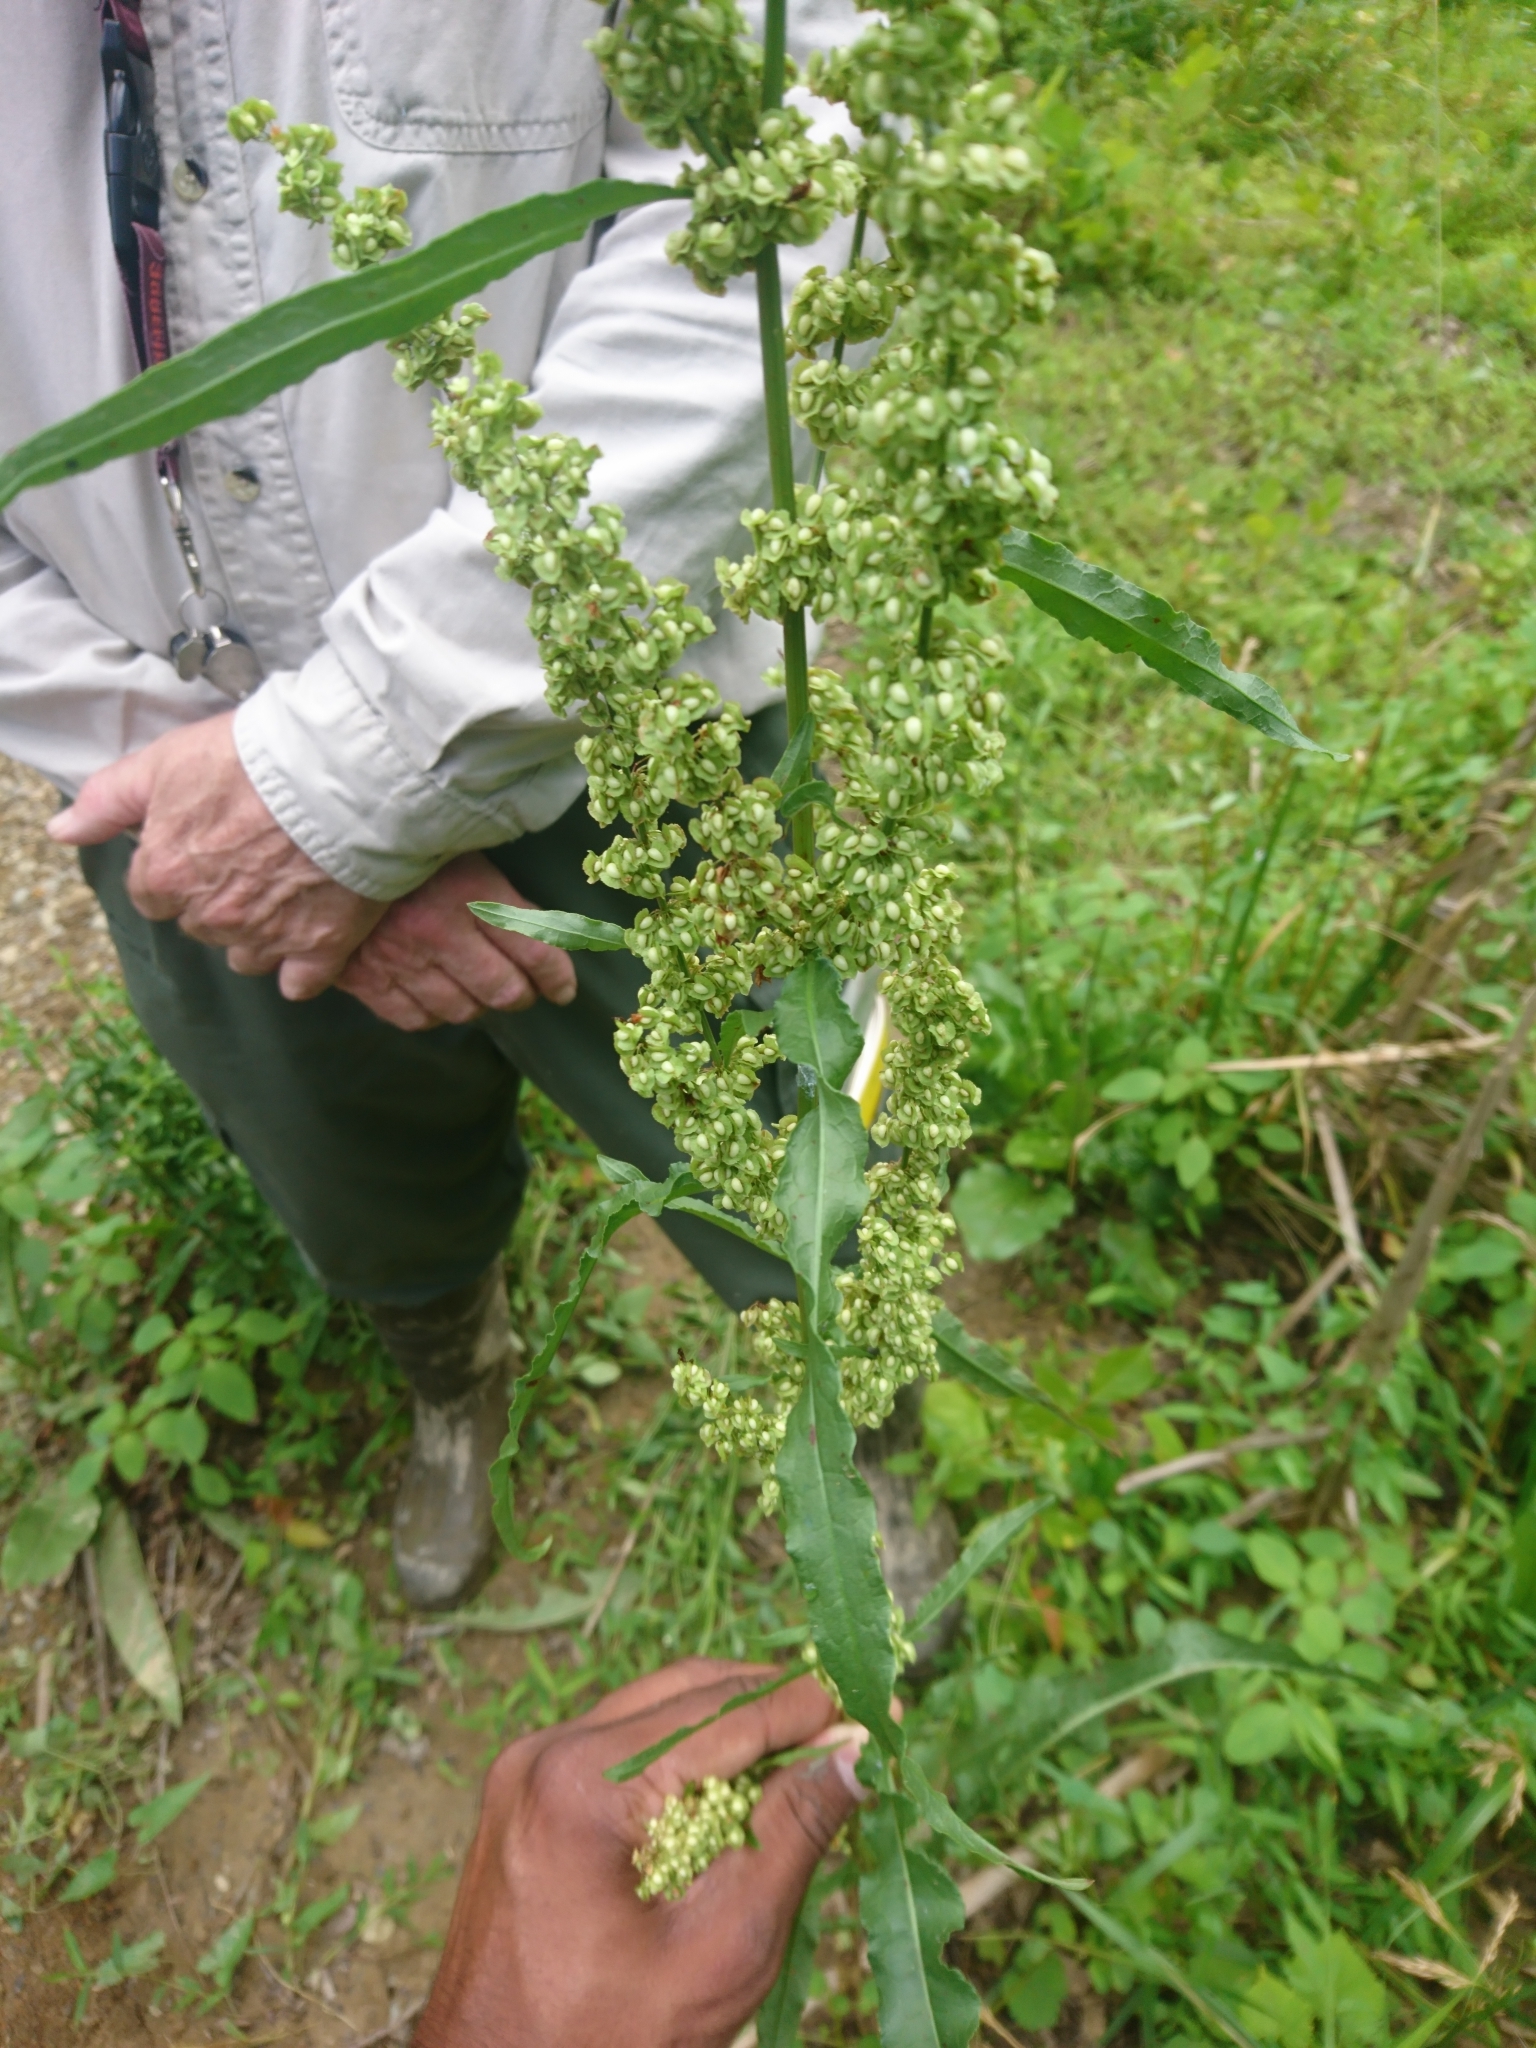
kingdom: Plantae
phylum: Tracheophyta
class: Magnoliopsida
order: Caryophyllales
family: Polygonaceae
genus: Rumex
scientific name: Rumex crispus
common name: Curled dock
